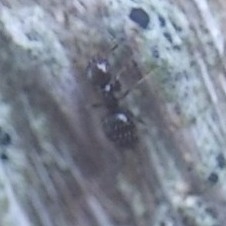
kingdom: Animalia
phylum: Arthropoda
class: Insecta
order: Hymenoptera
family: Formicidae
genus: Brachymyrmex
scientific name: Brachymyrmex patagonicus
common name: Dark rover ant
